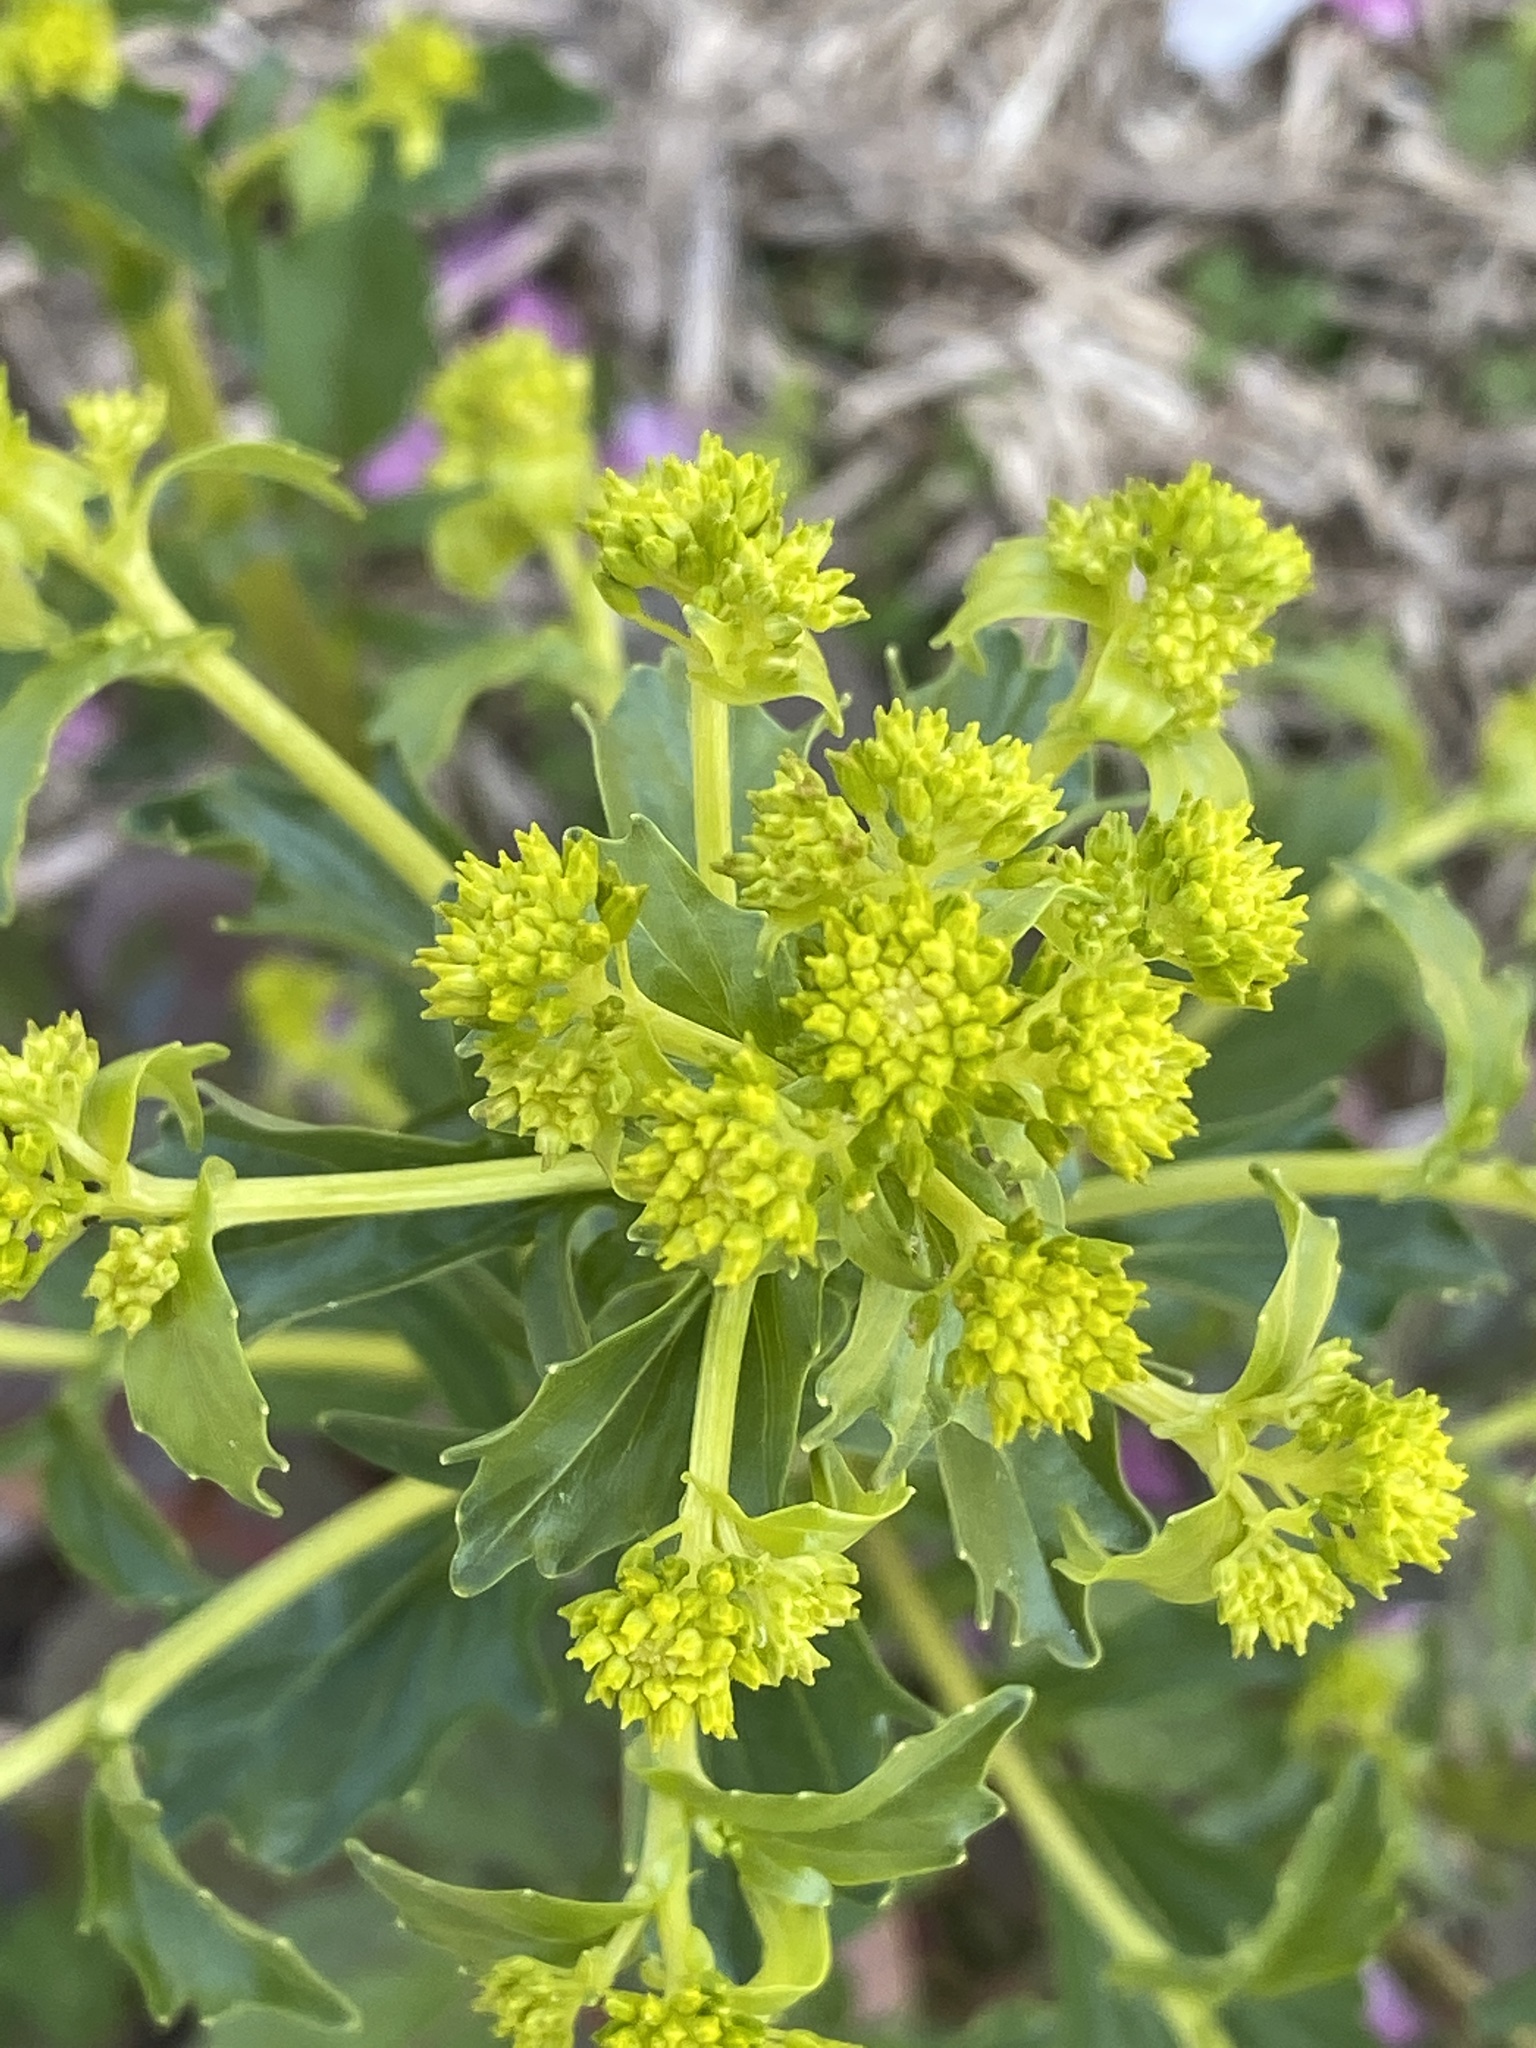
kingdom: Plantae
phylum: Tracheophyta
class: Magnoliopsida
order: Brassicales
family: Brassicaceae
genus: Barbarea
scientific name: Barbarea vulgaris
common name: Cressy-greens
